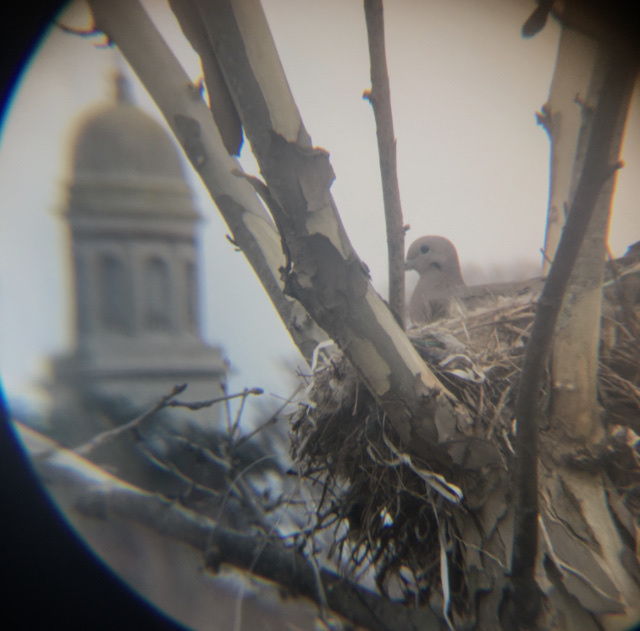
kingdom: Animalia
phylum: Chordata
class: Aves
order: Columbiformes
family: Columbidae
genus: Zenaida
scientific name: Zenaida auriculata
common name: Eared dove
